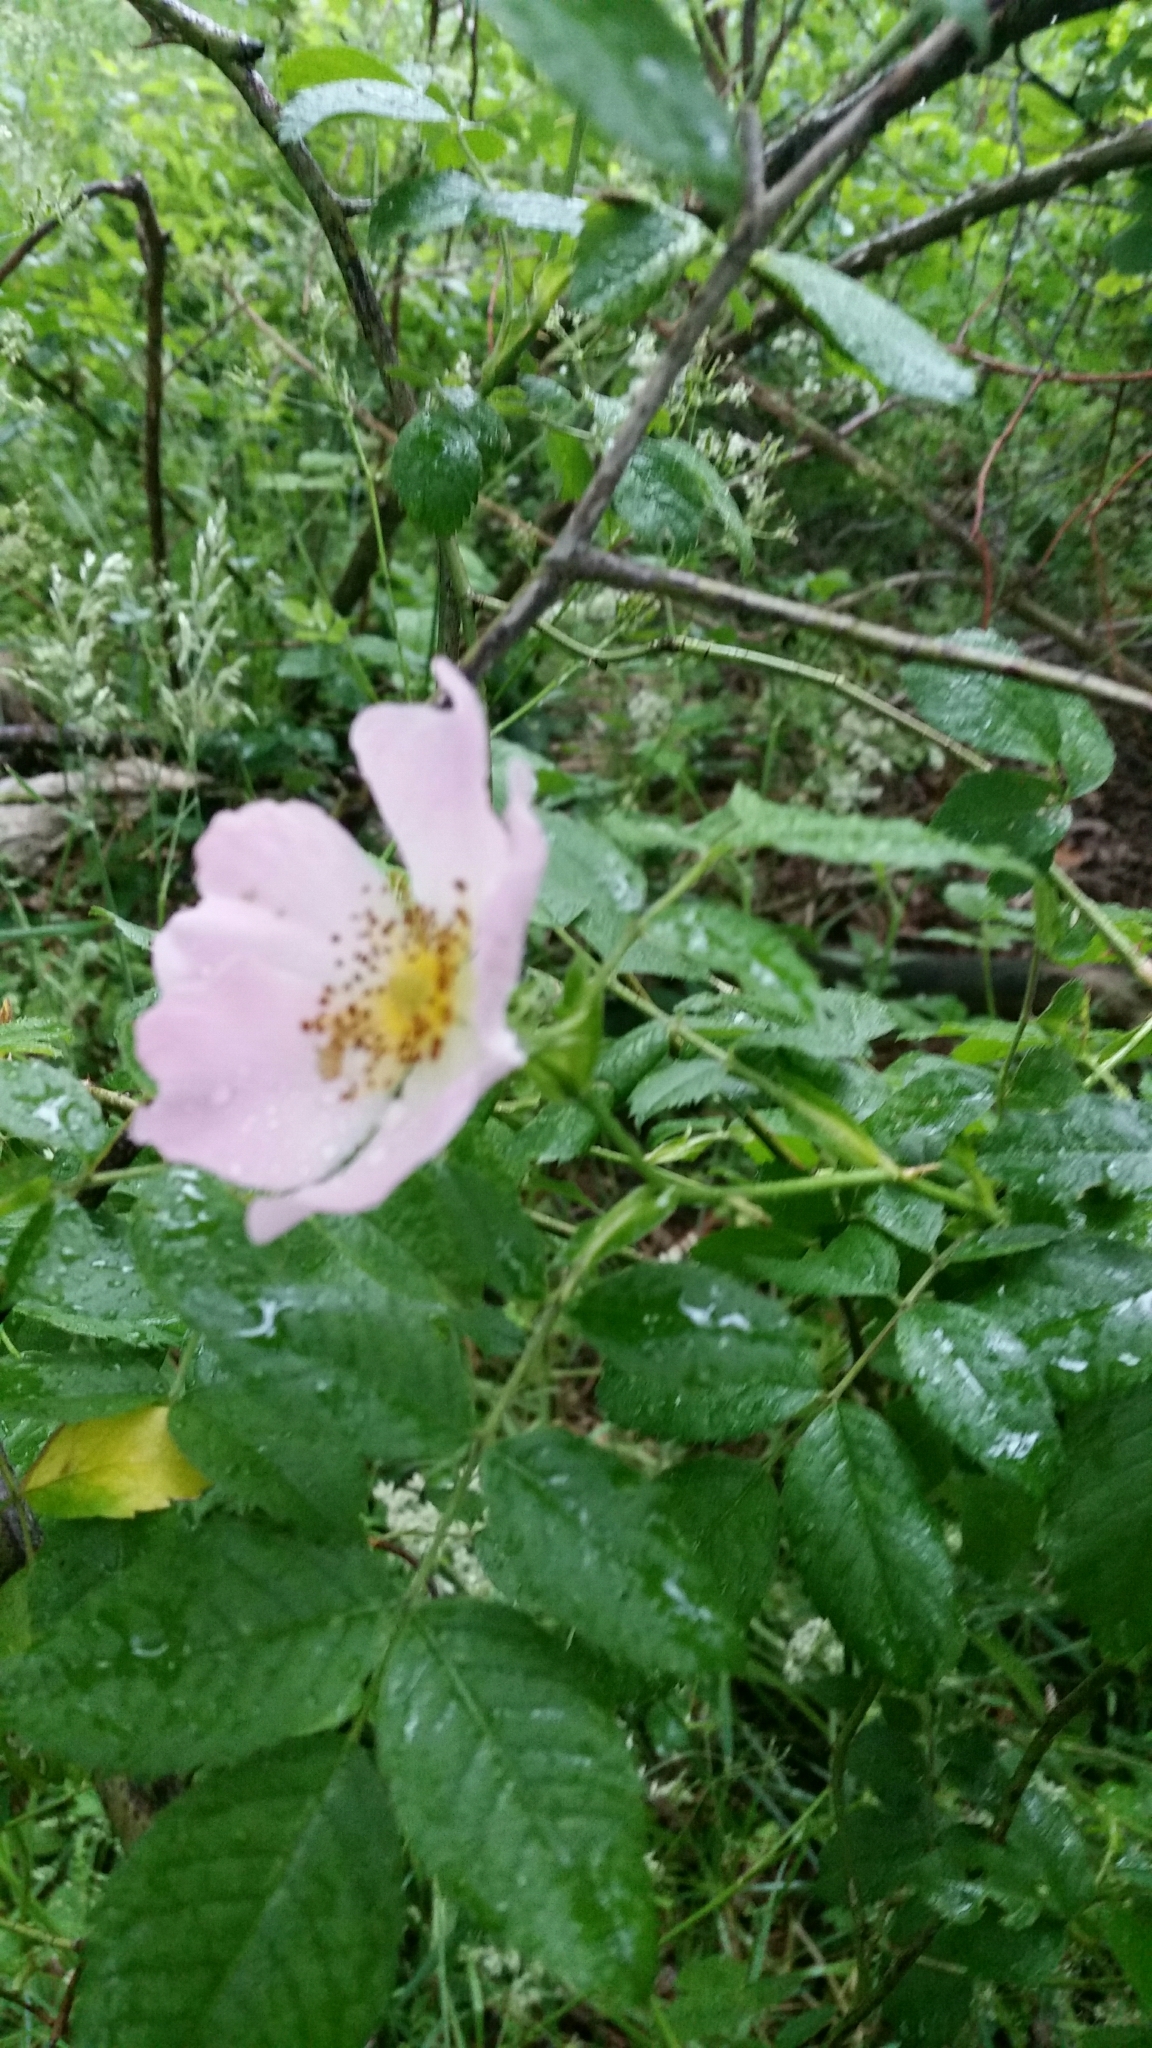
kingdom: Plantae
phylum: Tracheophyta
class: Magnoliopsida
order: Rosales
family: Rosaceae
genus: Rosa
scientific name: Rosa canina
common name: Dog rose
